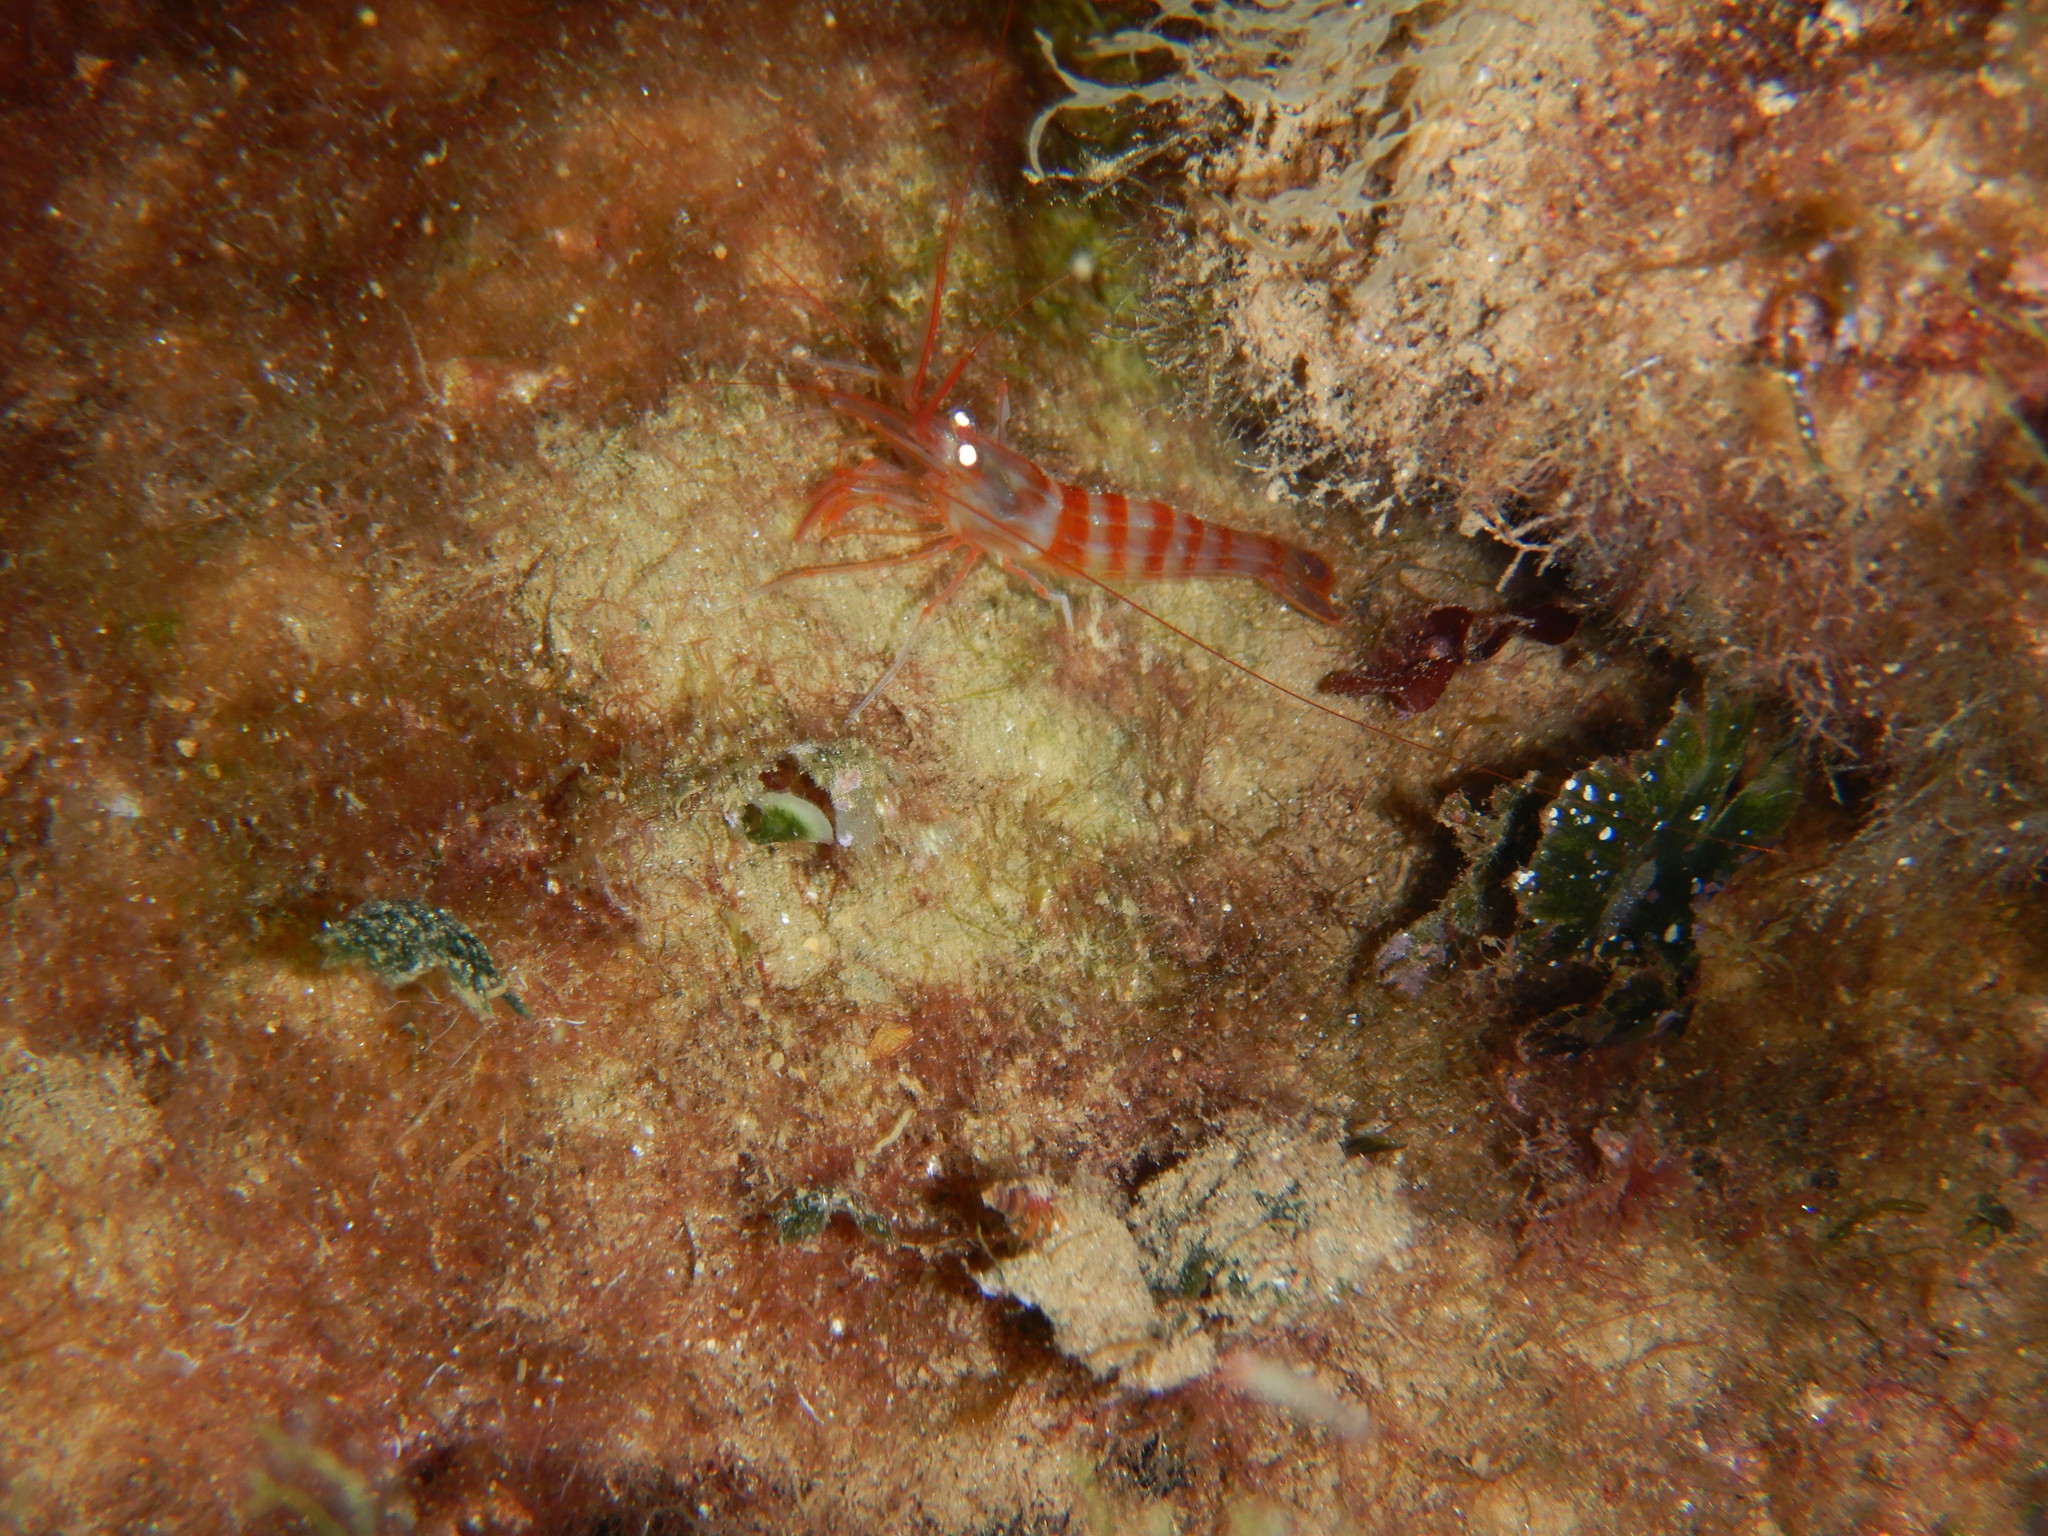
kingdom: Animalia
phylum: Arthropoda
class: Malacostraca
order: Decapoda
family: Lysmatidae
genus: Lysmata
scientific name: Lysmata seticaudata
